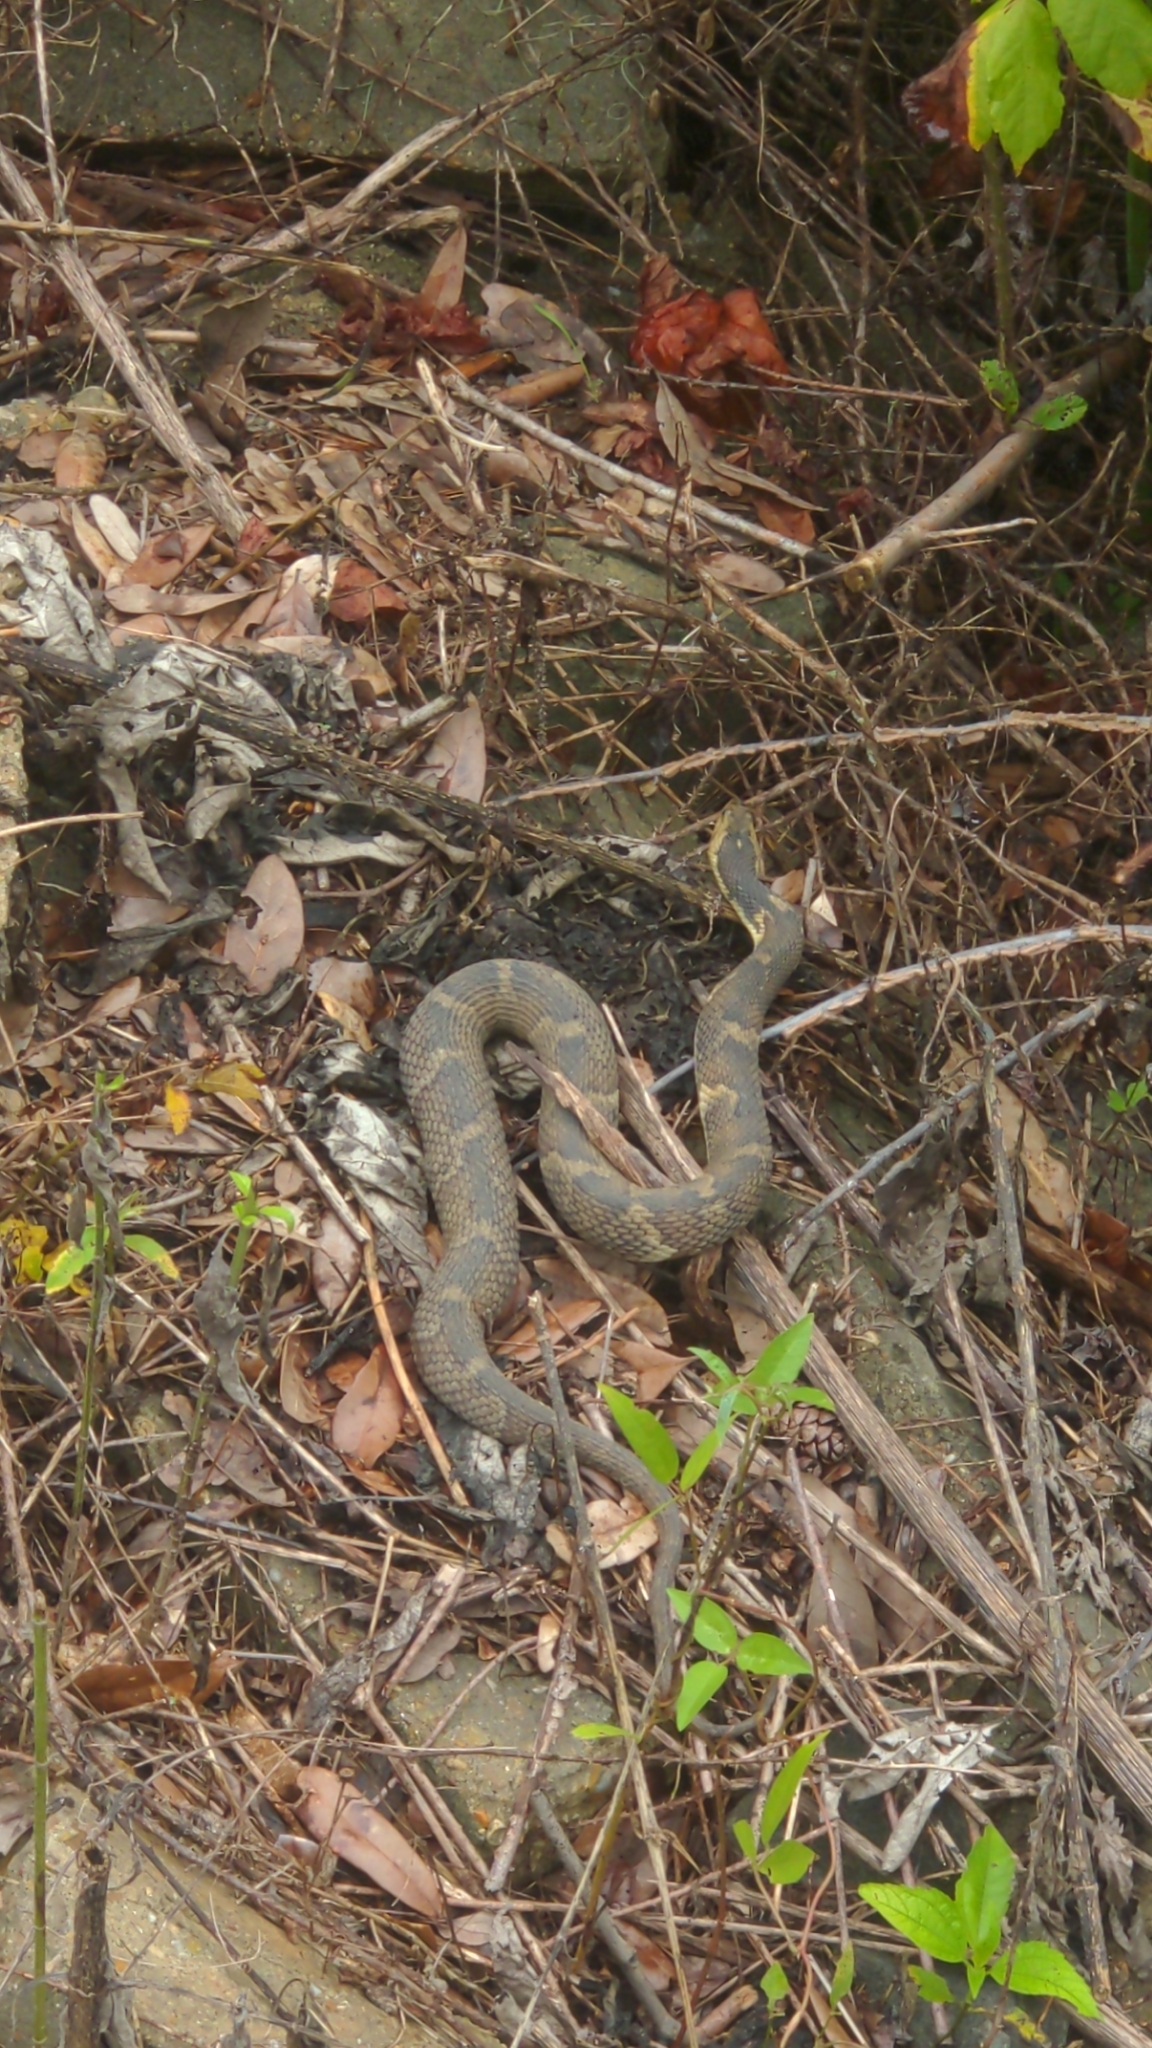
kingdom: Animalia
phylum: Chordata
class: Squamata
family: Colubridae
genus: Nerodia
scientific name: Nerodia fasciata
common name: Southern water snake
